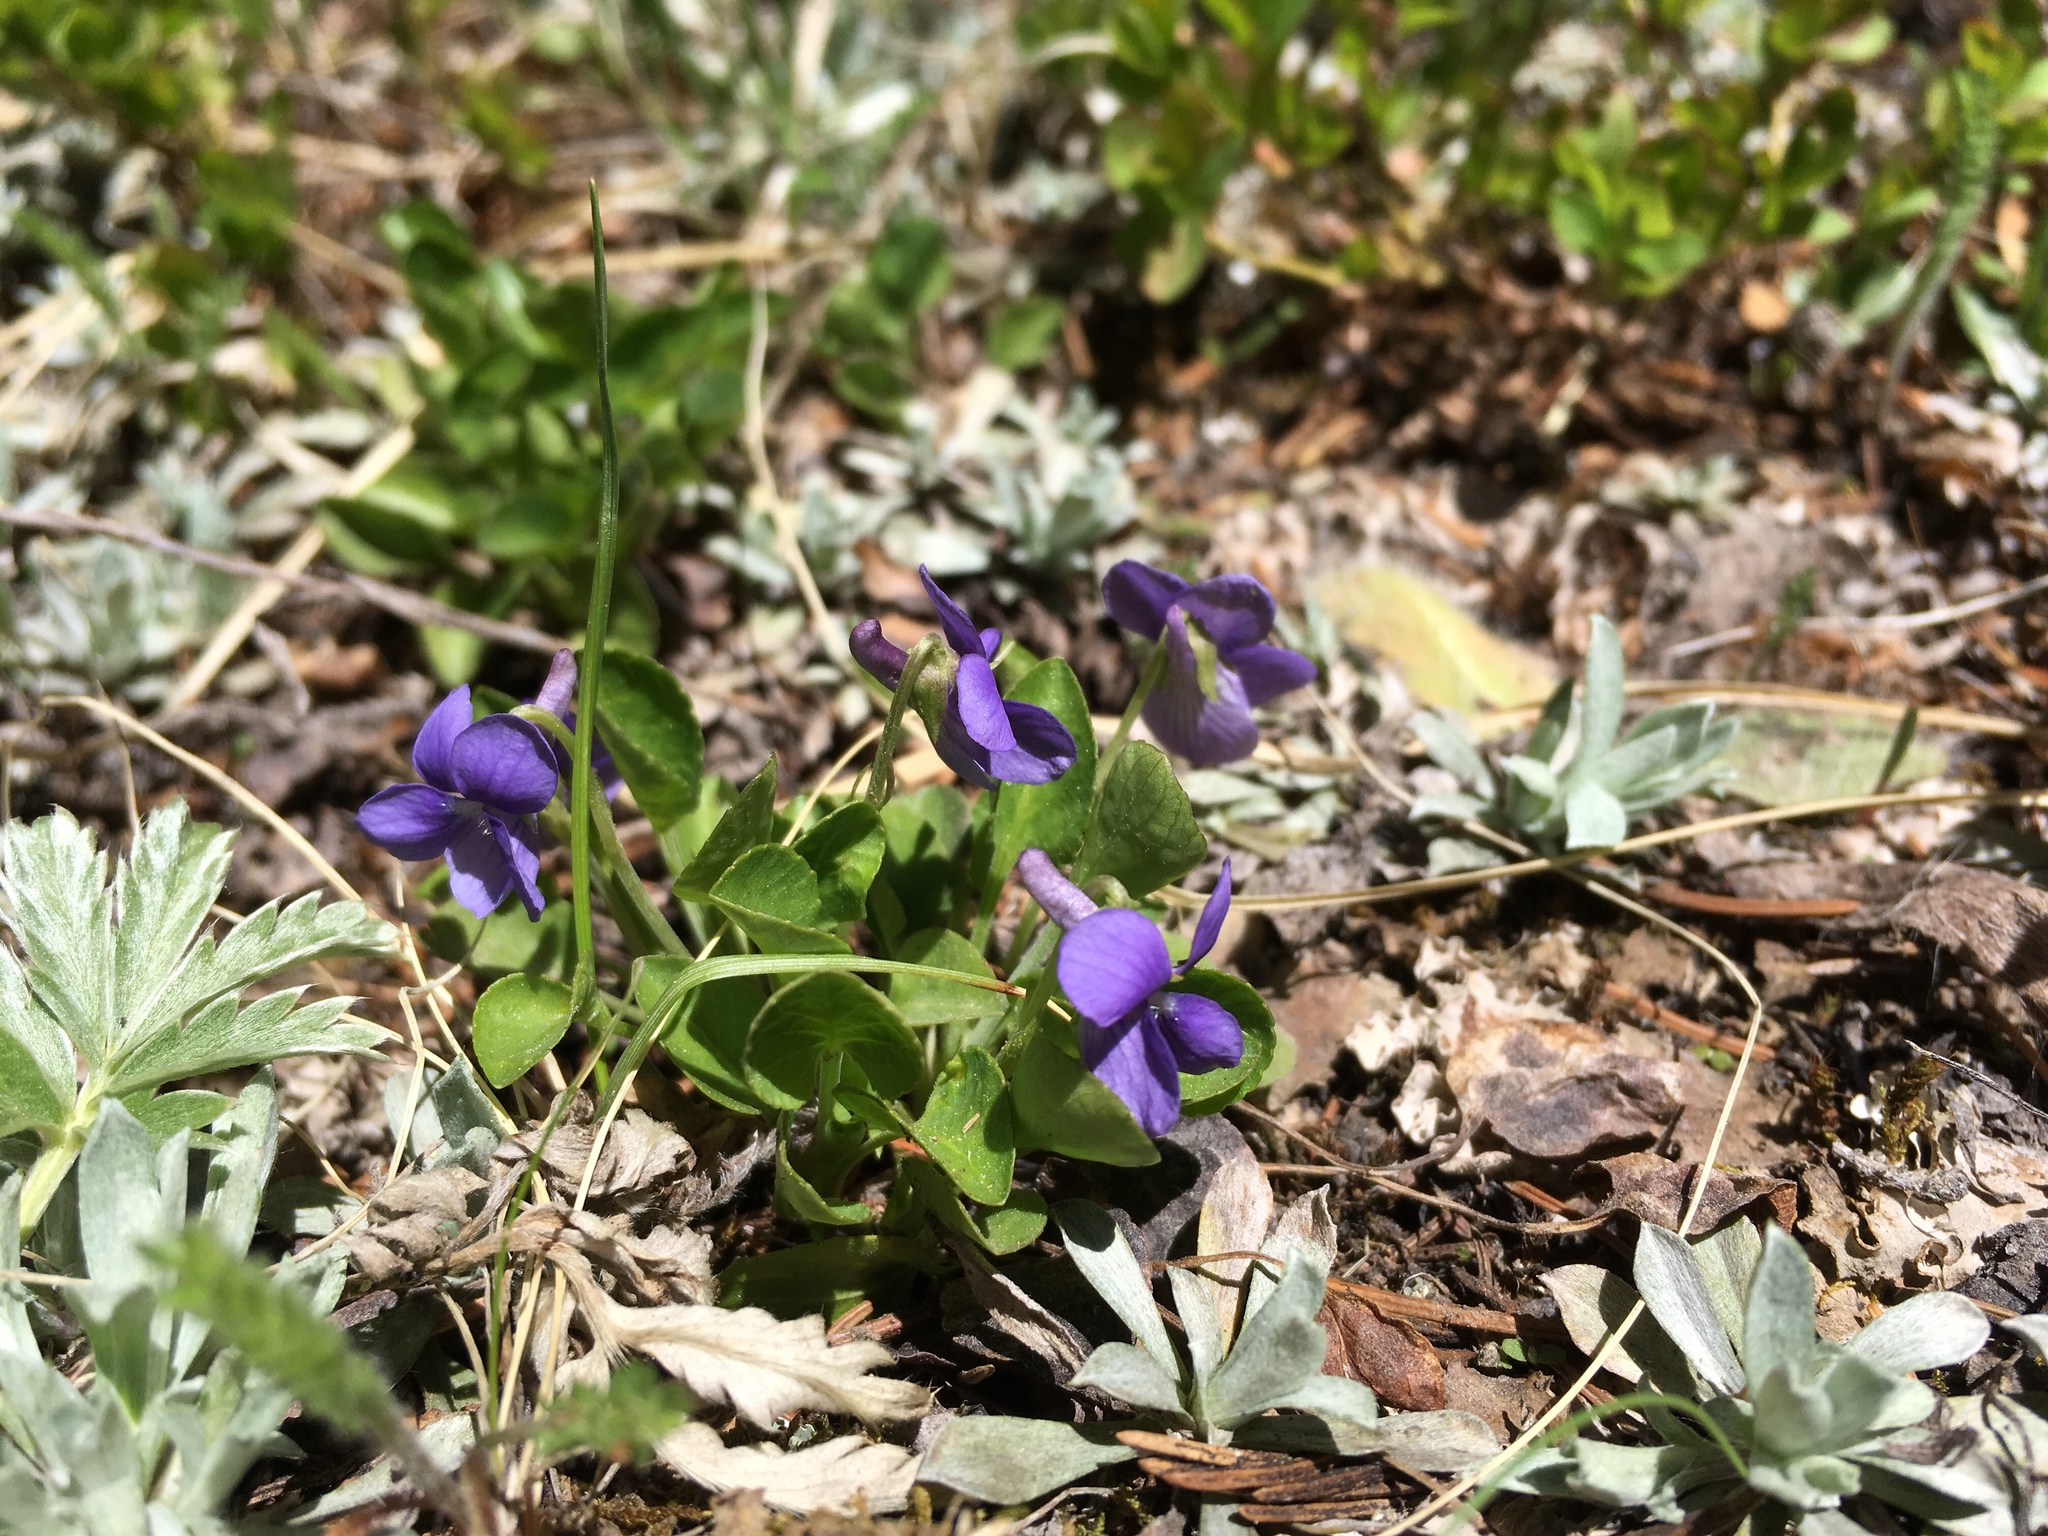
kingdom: Plantae
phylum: Tracheophyta
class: Magnoliopsida
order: Malpighiales
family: Violaceae
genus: Viola
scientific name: Viola adunca
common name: Sand violet
